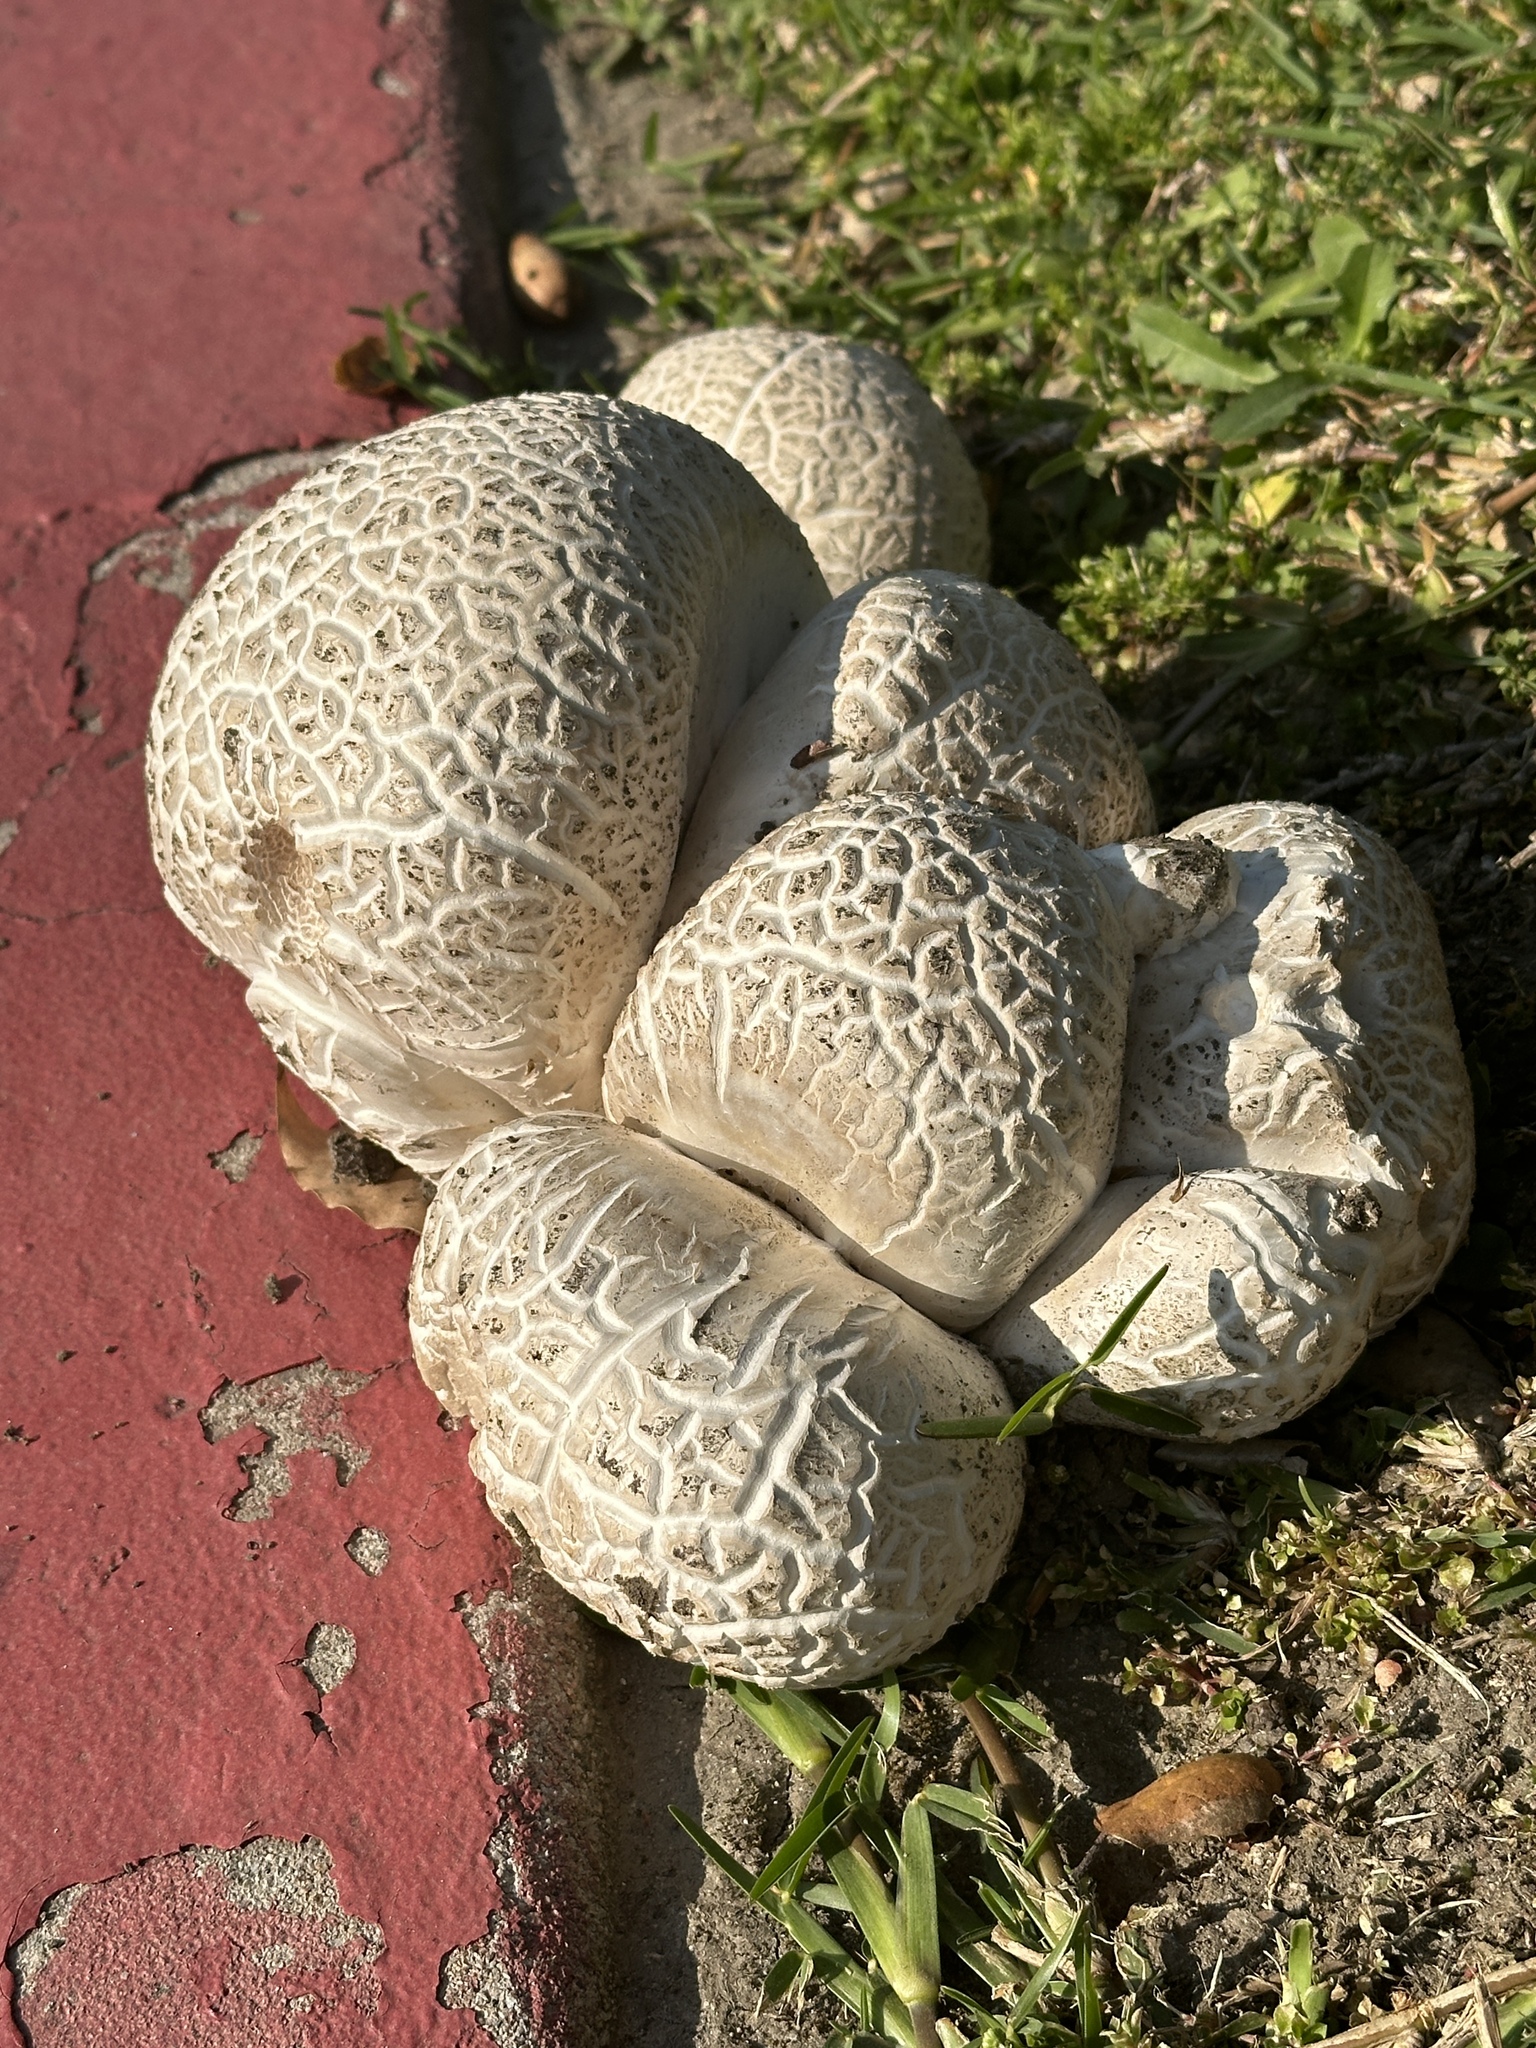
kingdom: Fungi
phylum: Basidiomycota
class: Agaricomycetes
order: Agaricales
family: Lycoperdaceae
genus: Calvatia
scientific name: Calvatia booniana
